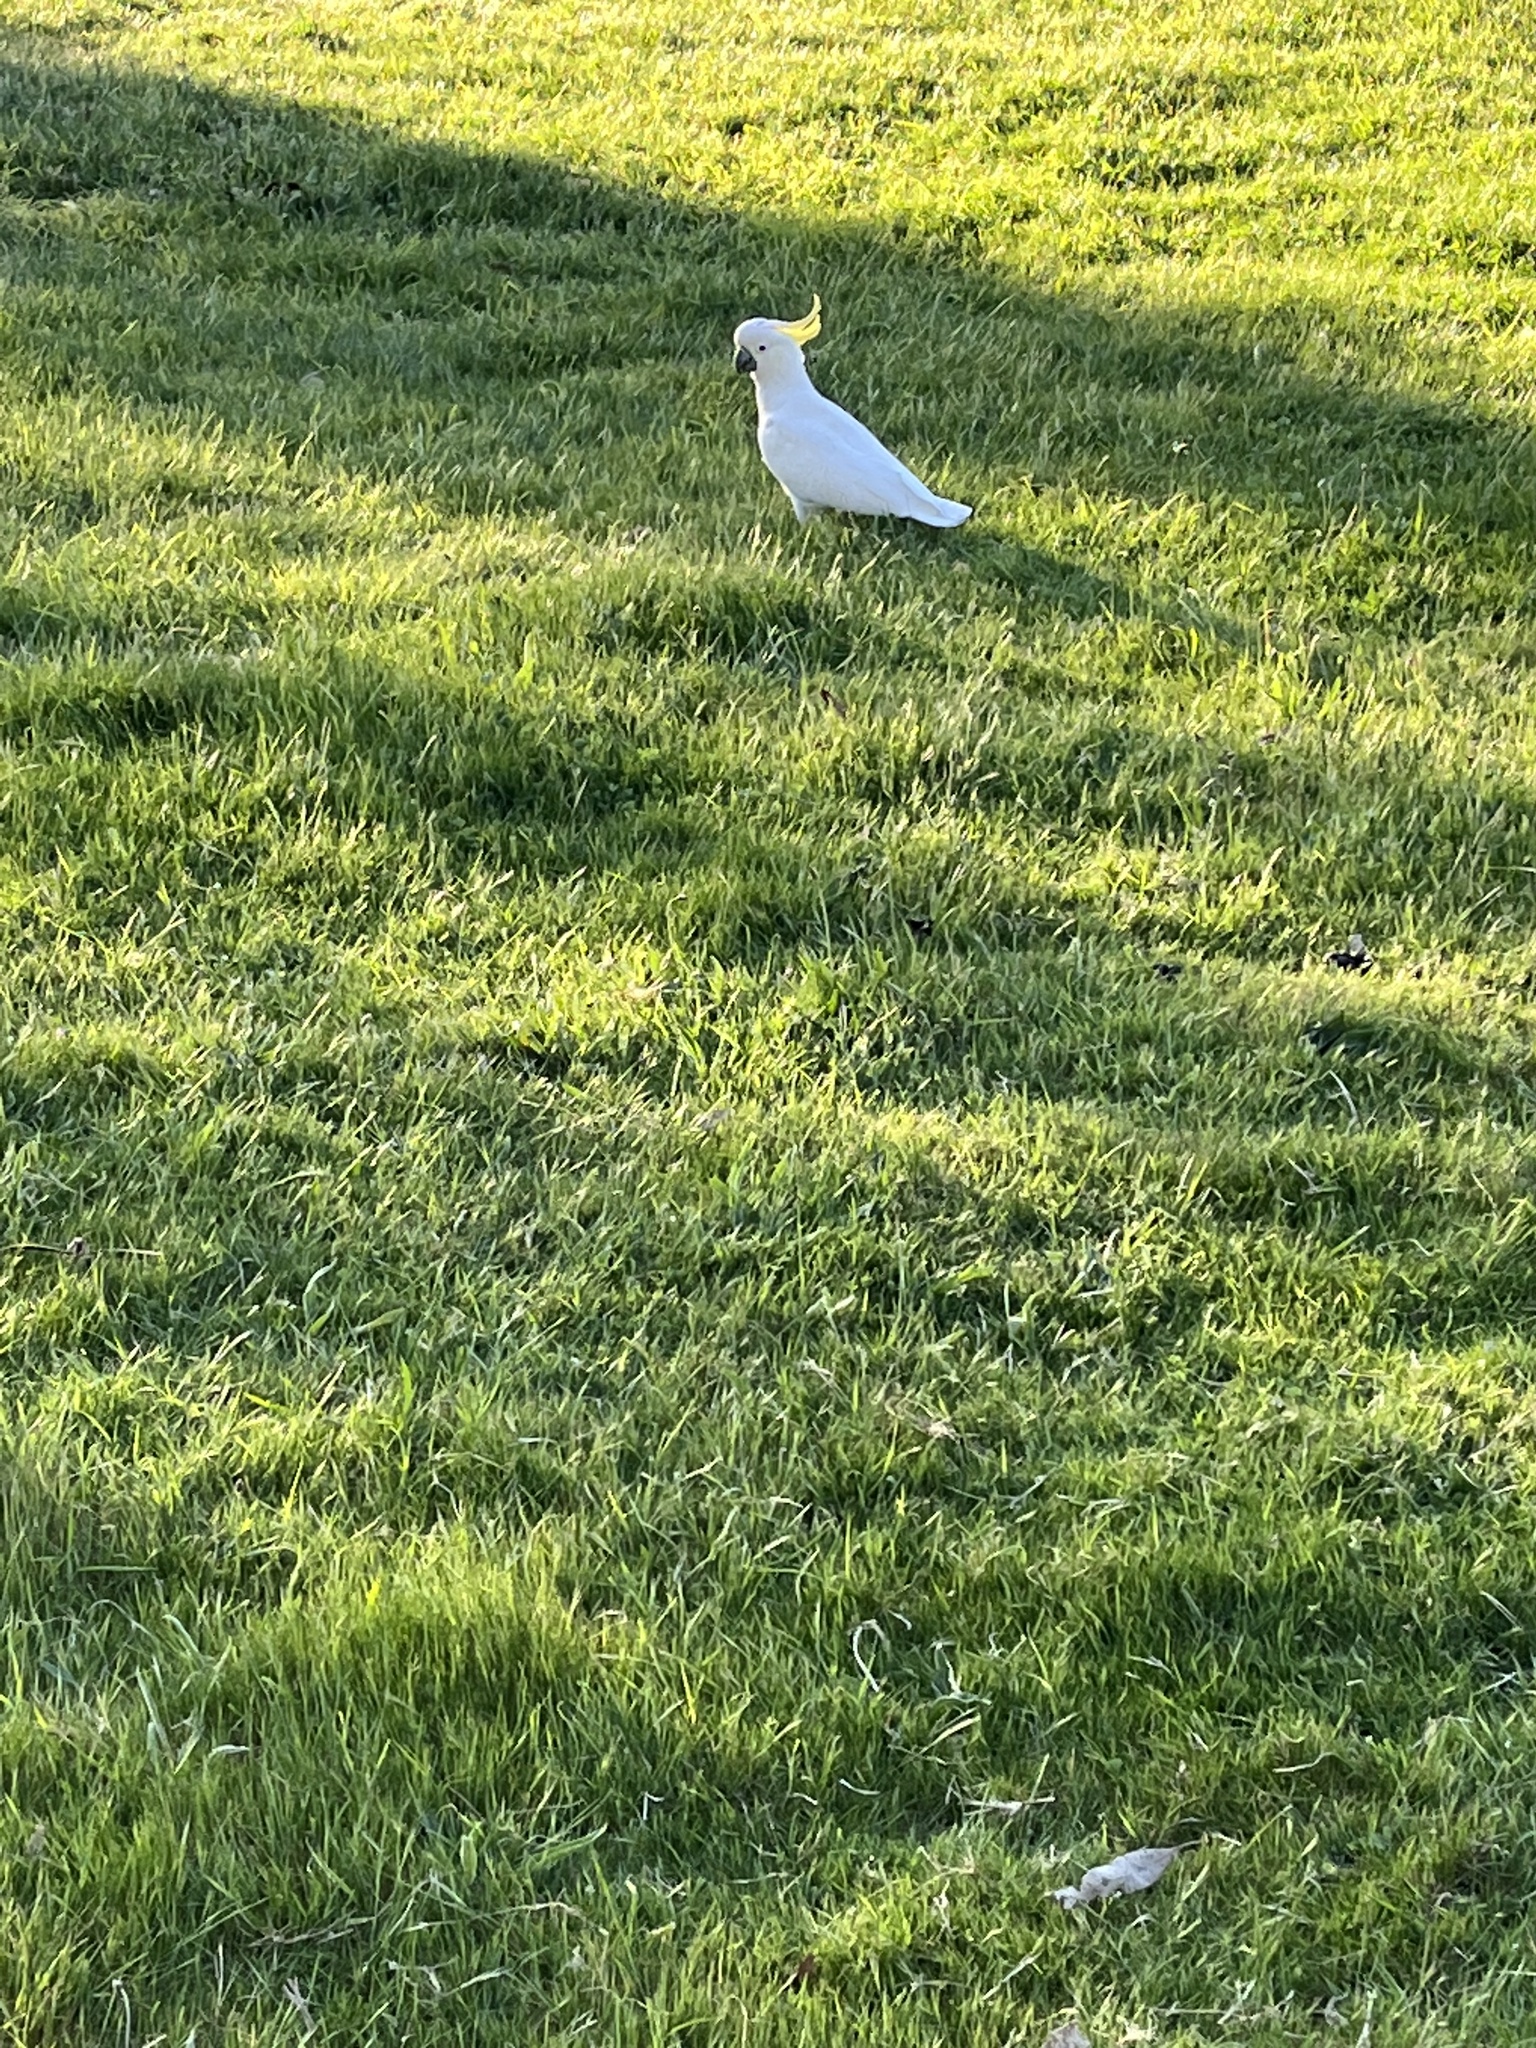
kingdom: Animalia
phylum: Chordata
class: Aves
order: Psittaciformes
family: Psittacidae
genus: Cacatua
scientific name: Cacatua galerita
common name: Sulphur-crested cockatoo
